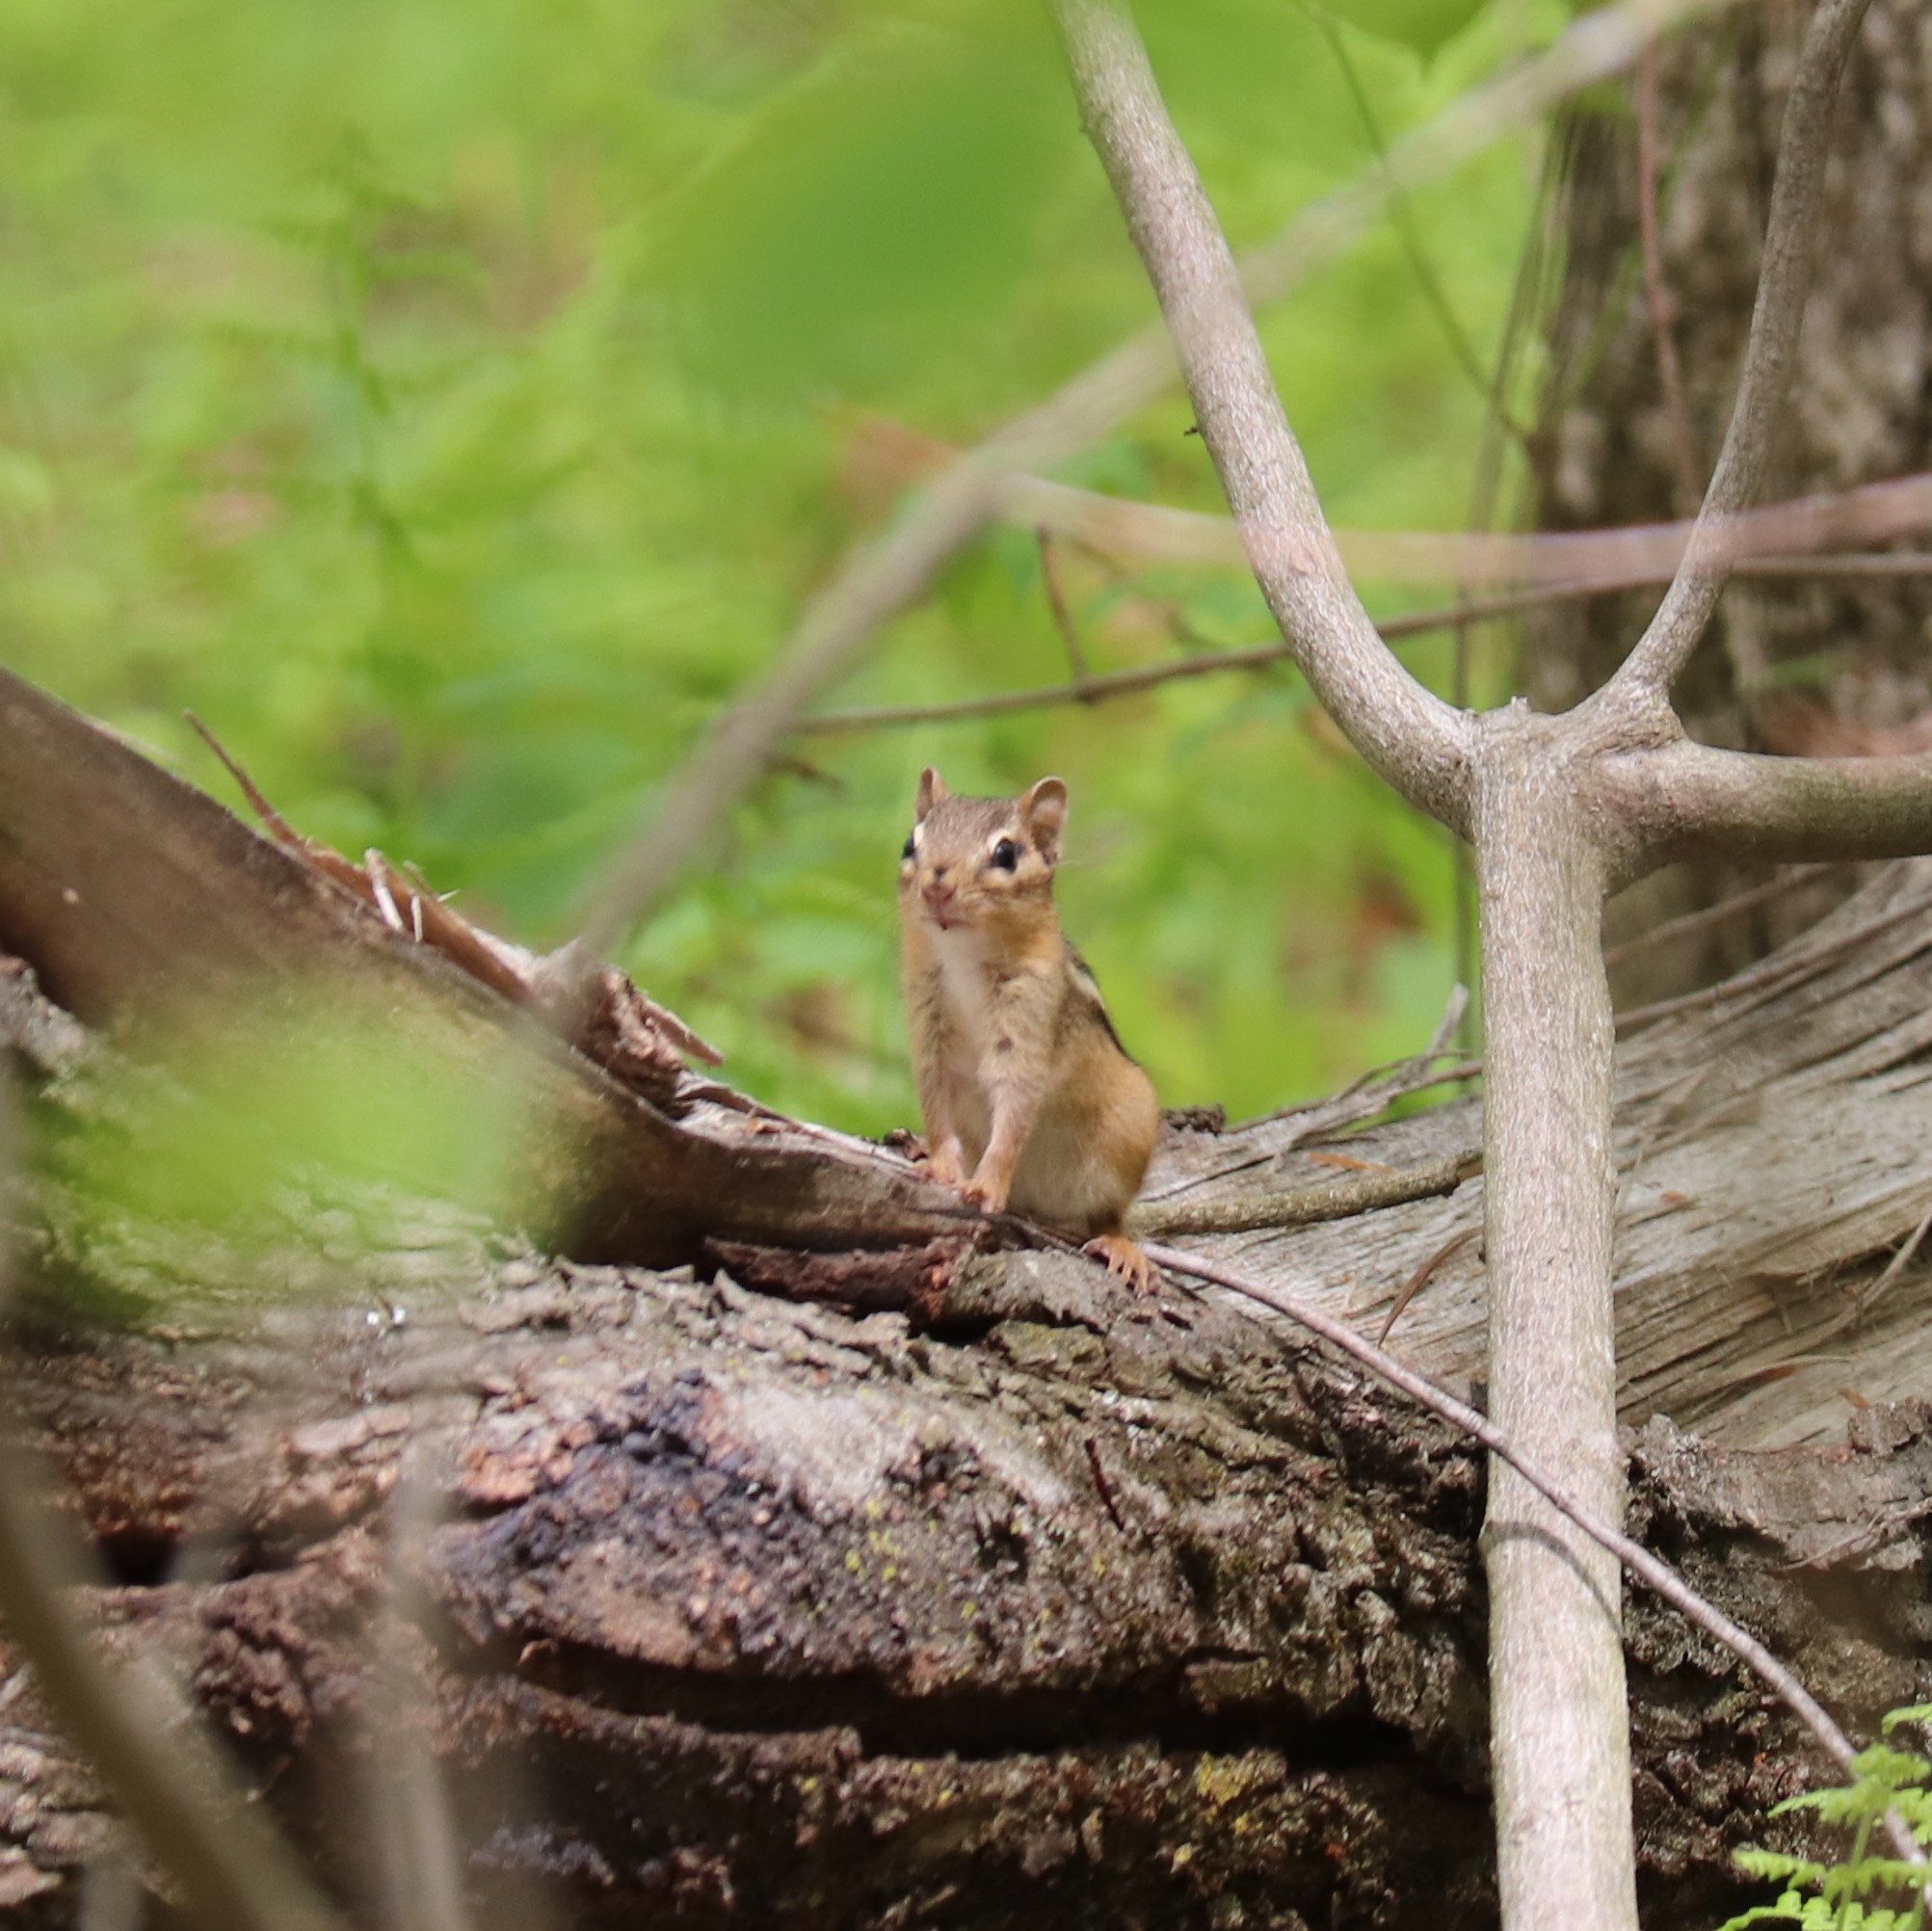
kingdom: Animalia
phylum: Chordata
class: Mammalia
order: Rodentia
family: Sciuridae
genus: Tamias
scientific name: Tamias striatus
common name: Eastern chipmunk
